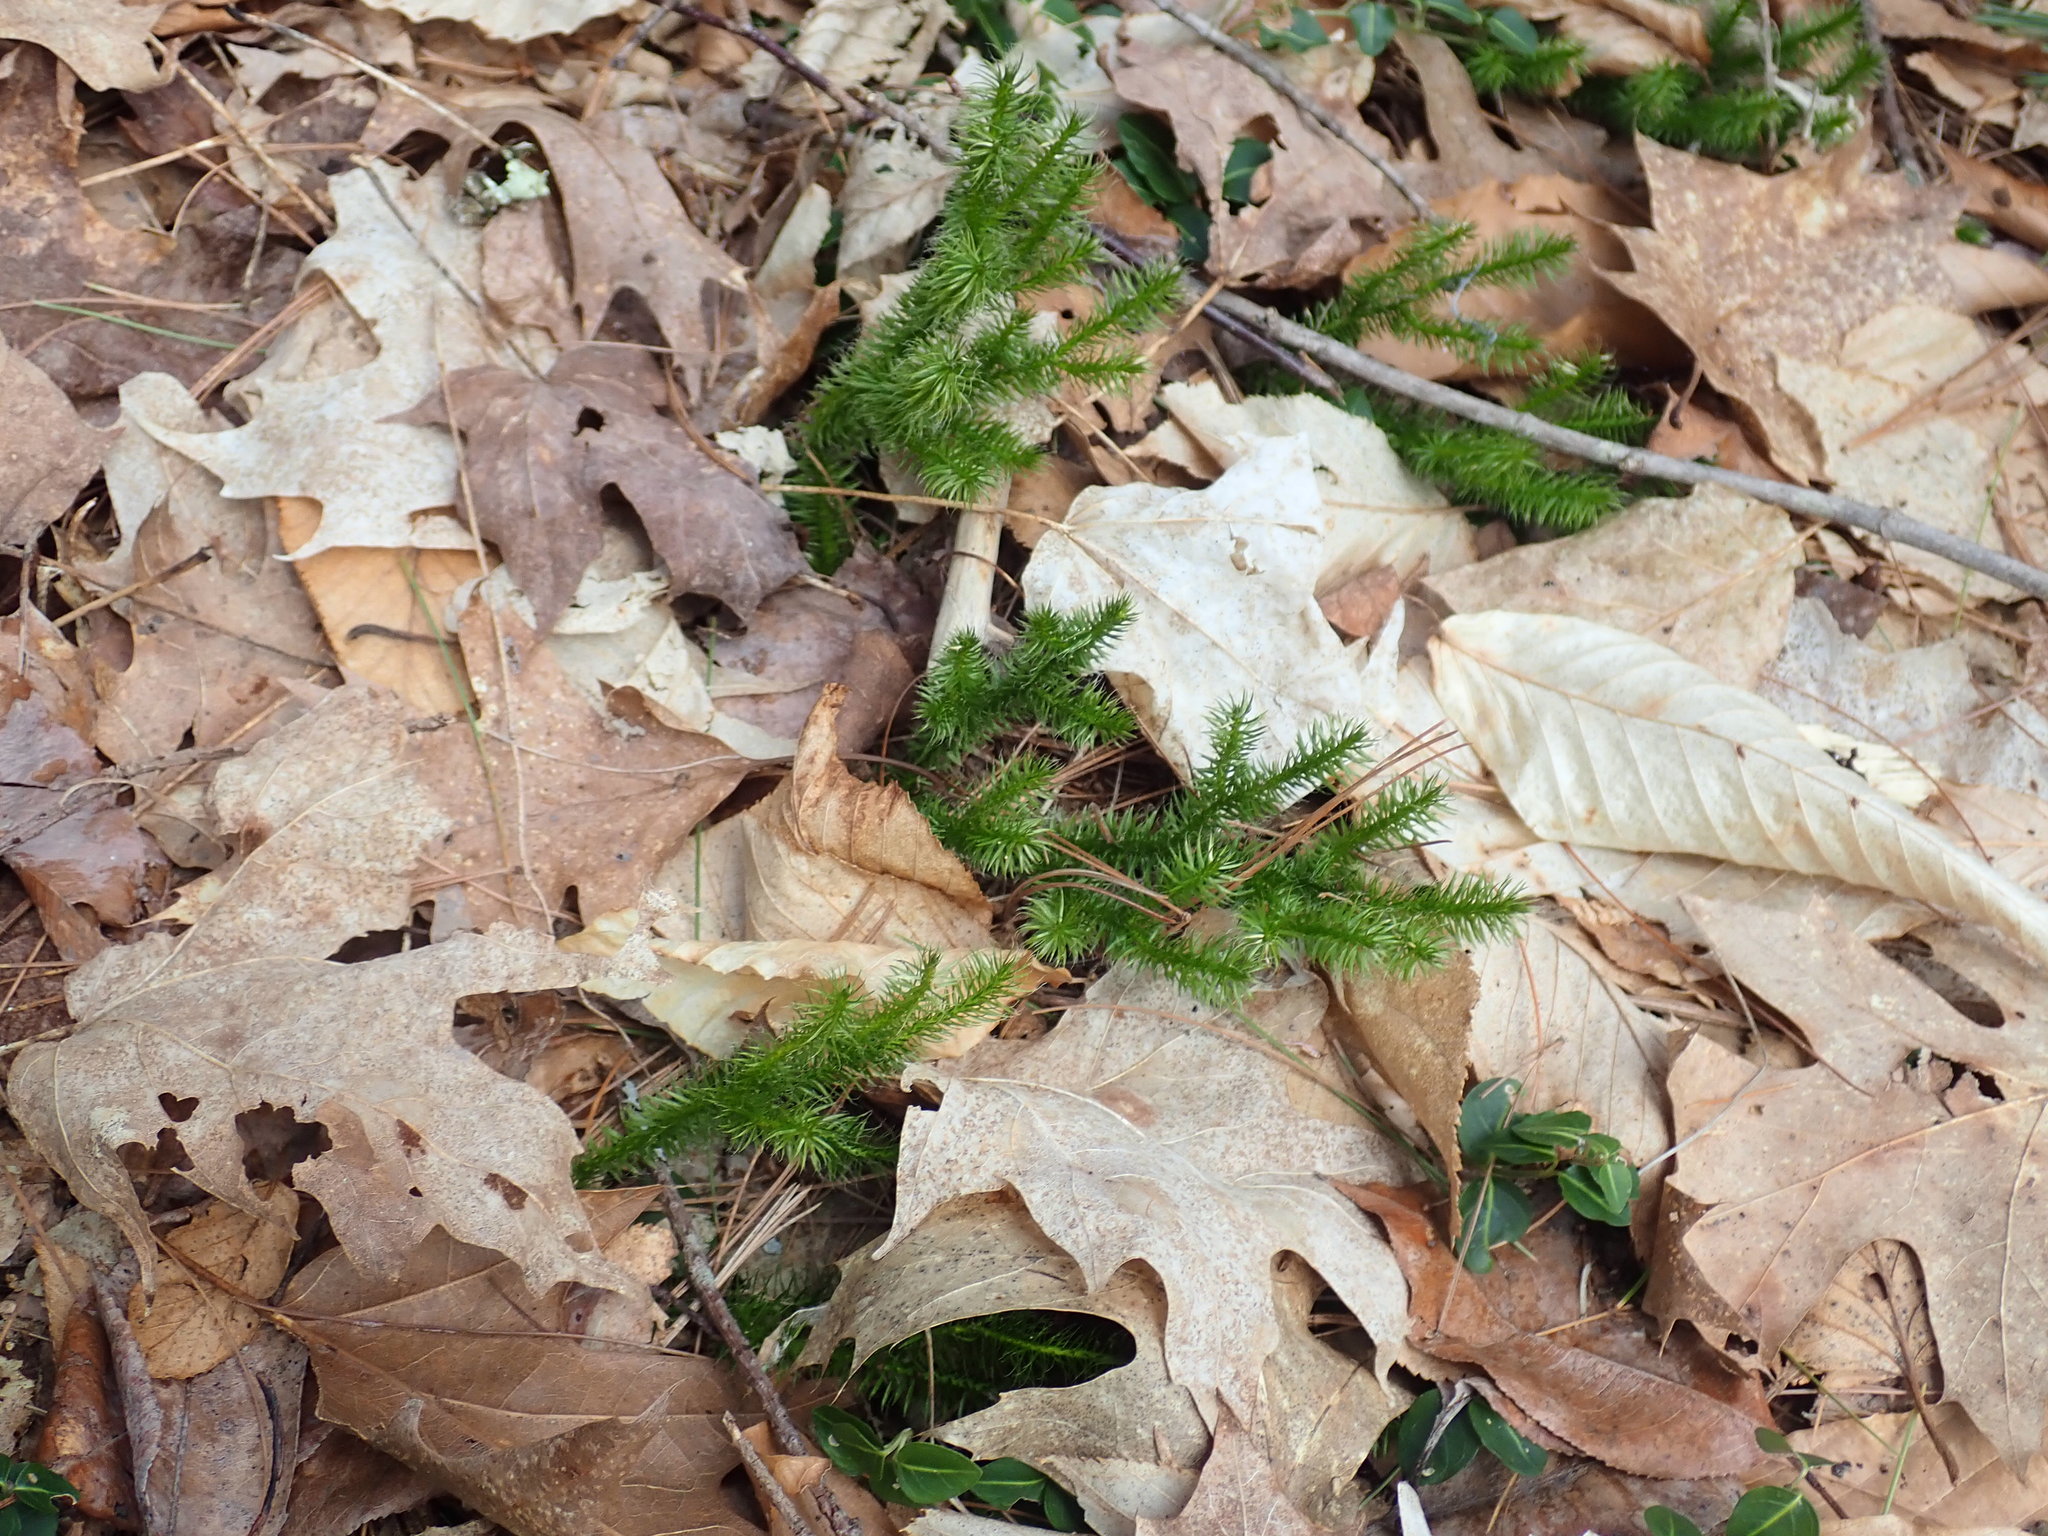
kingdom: Plantae
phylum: Tracheophyta
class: Lycopodiopsida
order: Lycopodiales
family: Lycopodiaceae
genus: Lycopodium
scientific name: Lycopodium clavatum
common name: Stag's-horn clubmoss
